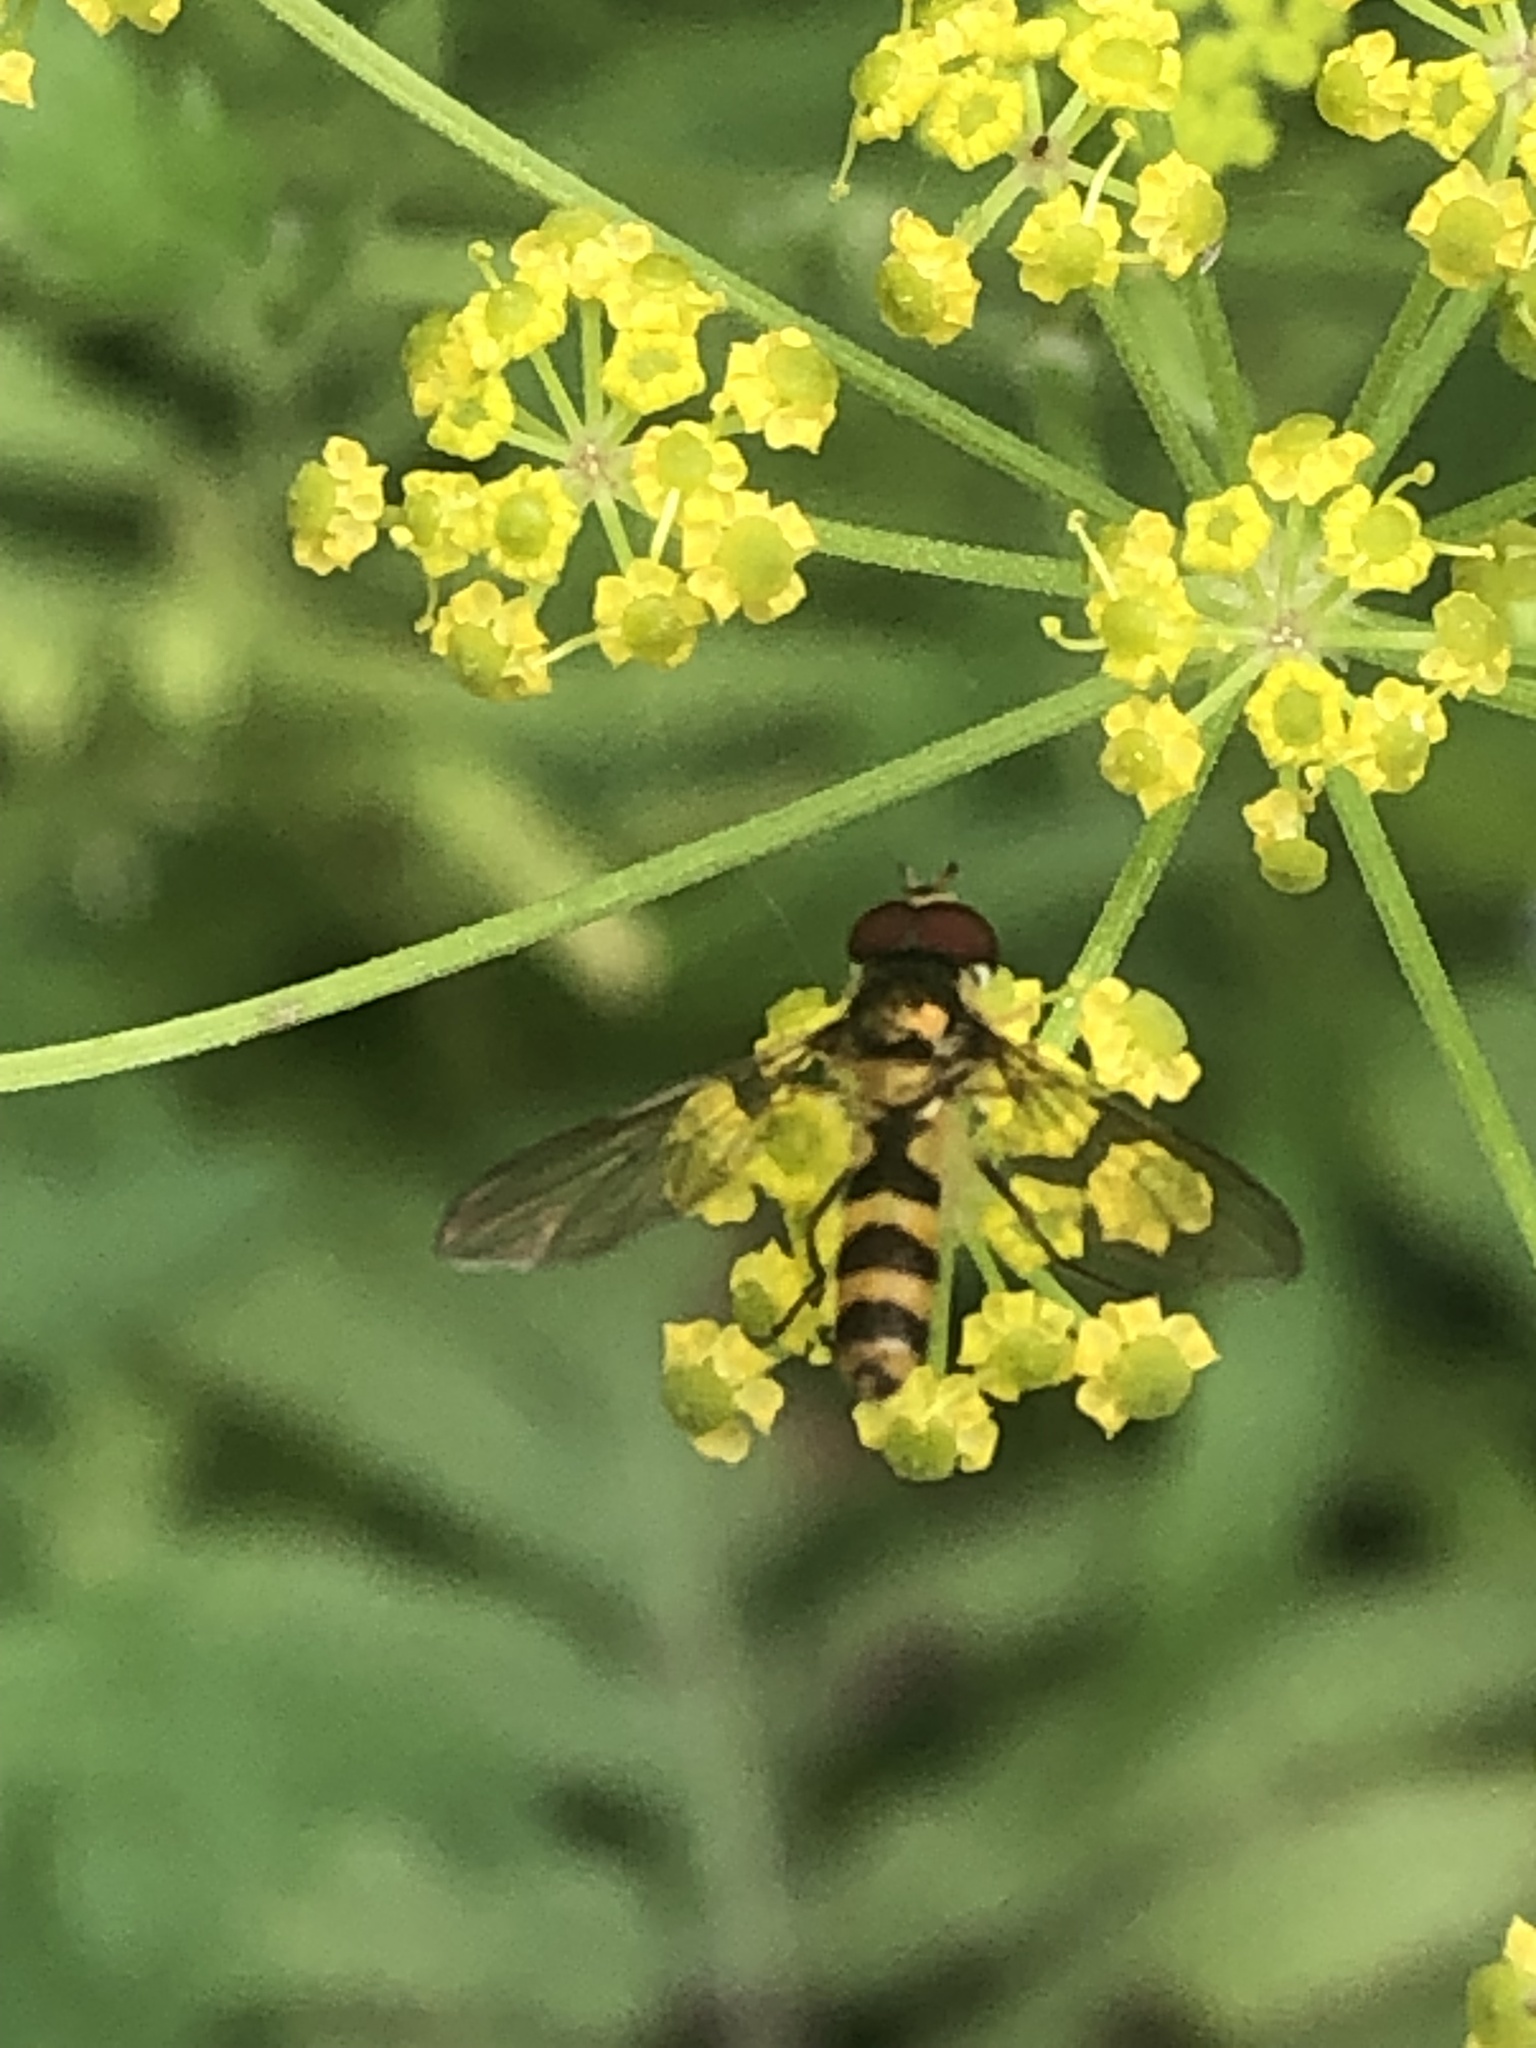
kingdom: Animalia
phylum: Arthropoda
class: Insecta
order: Diptera
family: Syrphidae
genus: Meliscaeva
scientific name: Meliscaeva cinctella
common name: American thintail fly
